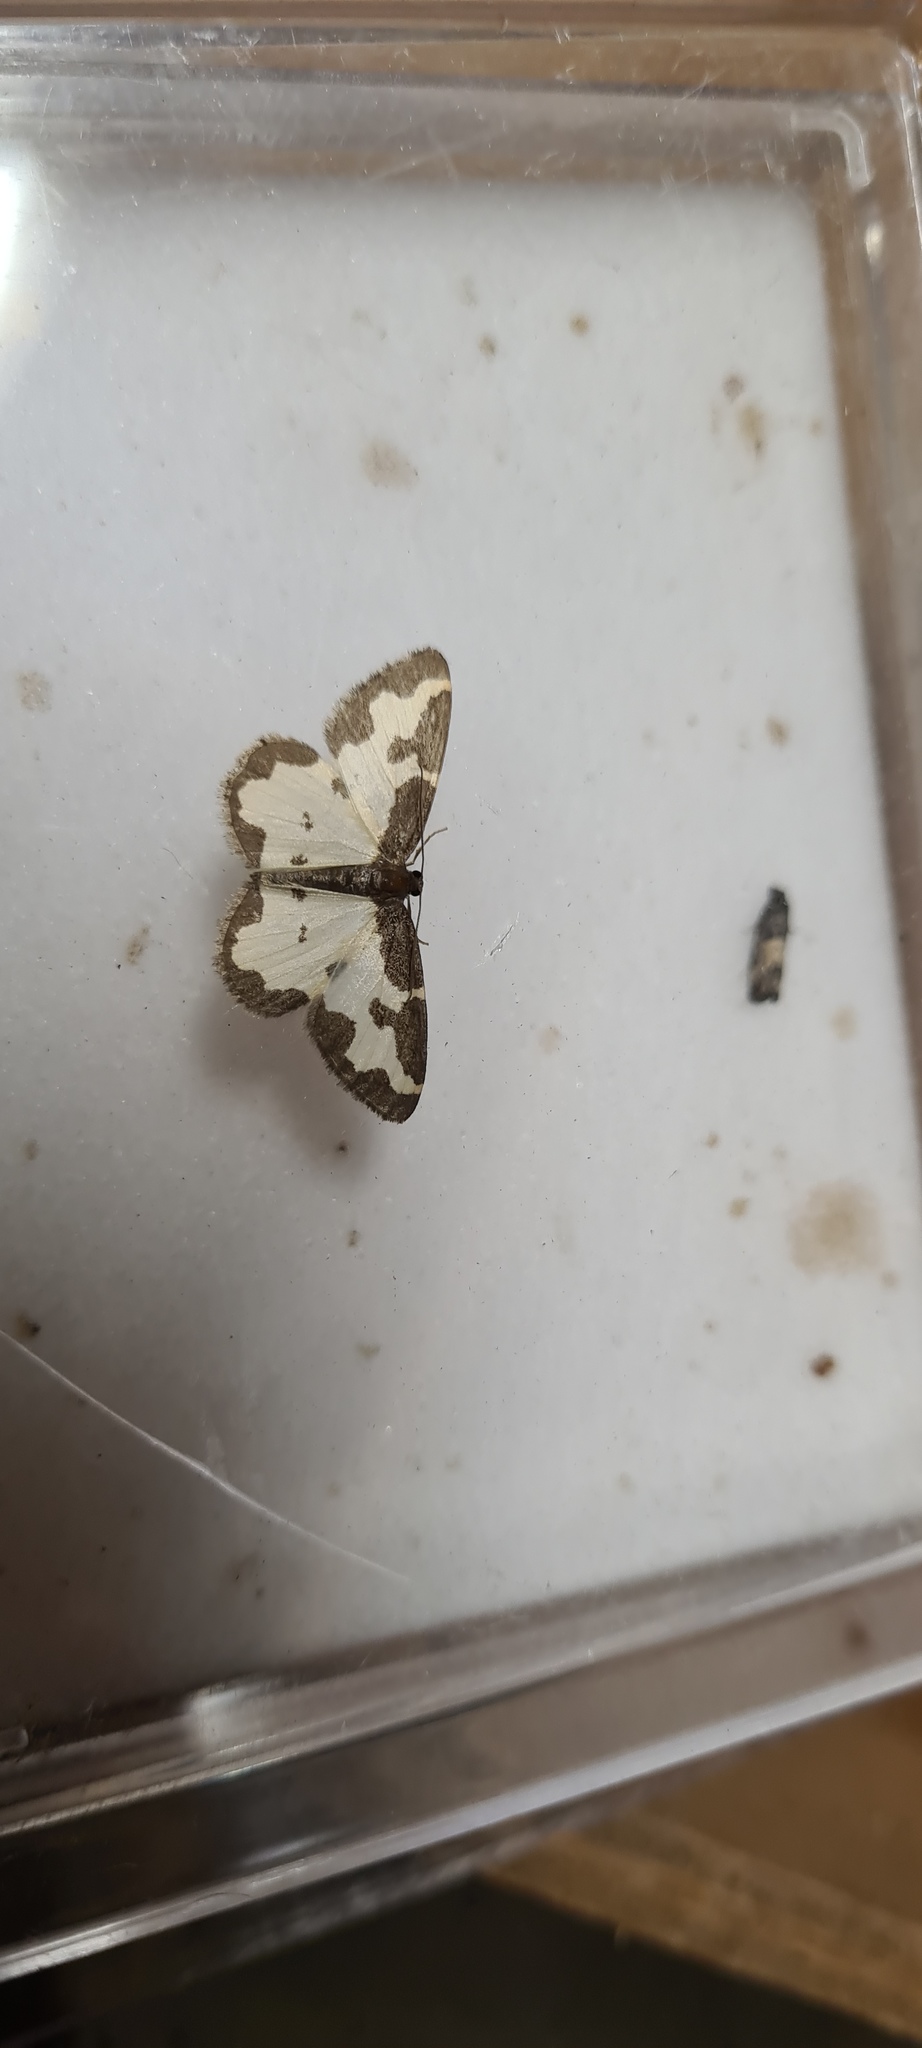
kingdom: Animalia
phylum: Arthropoda
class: Insecta
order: Lepidoptera
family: Geometridae
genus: Lomaspilis
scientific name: Lomaspilis marginata
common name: Clouded border
